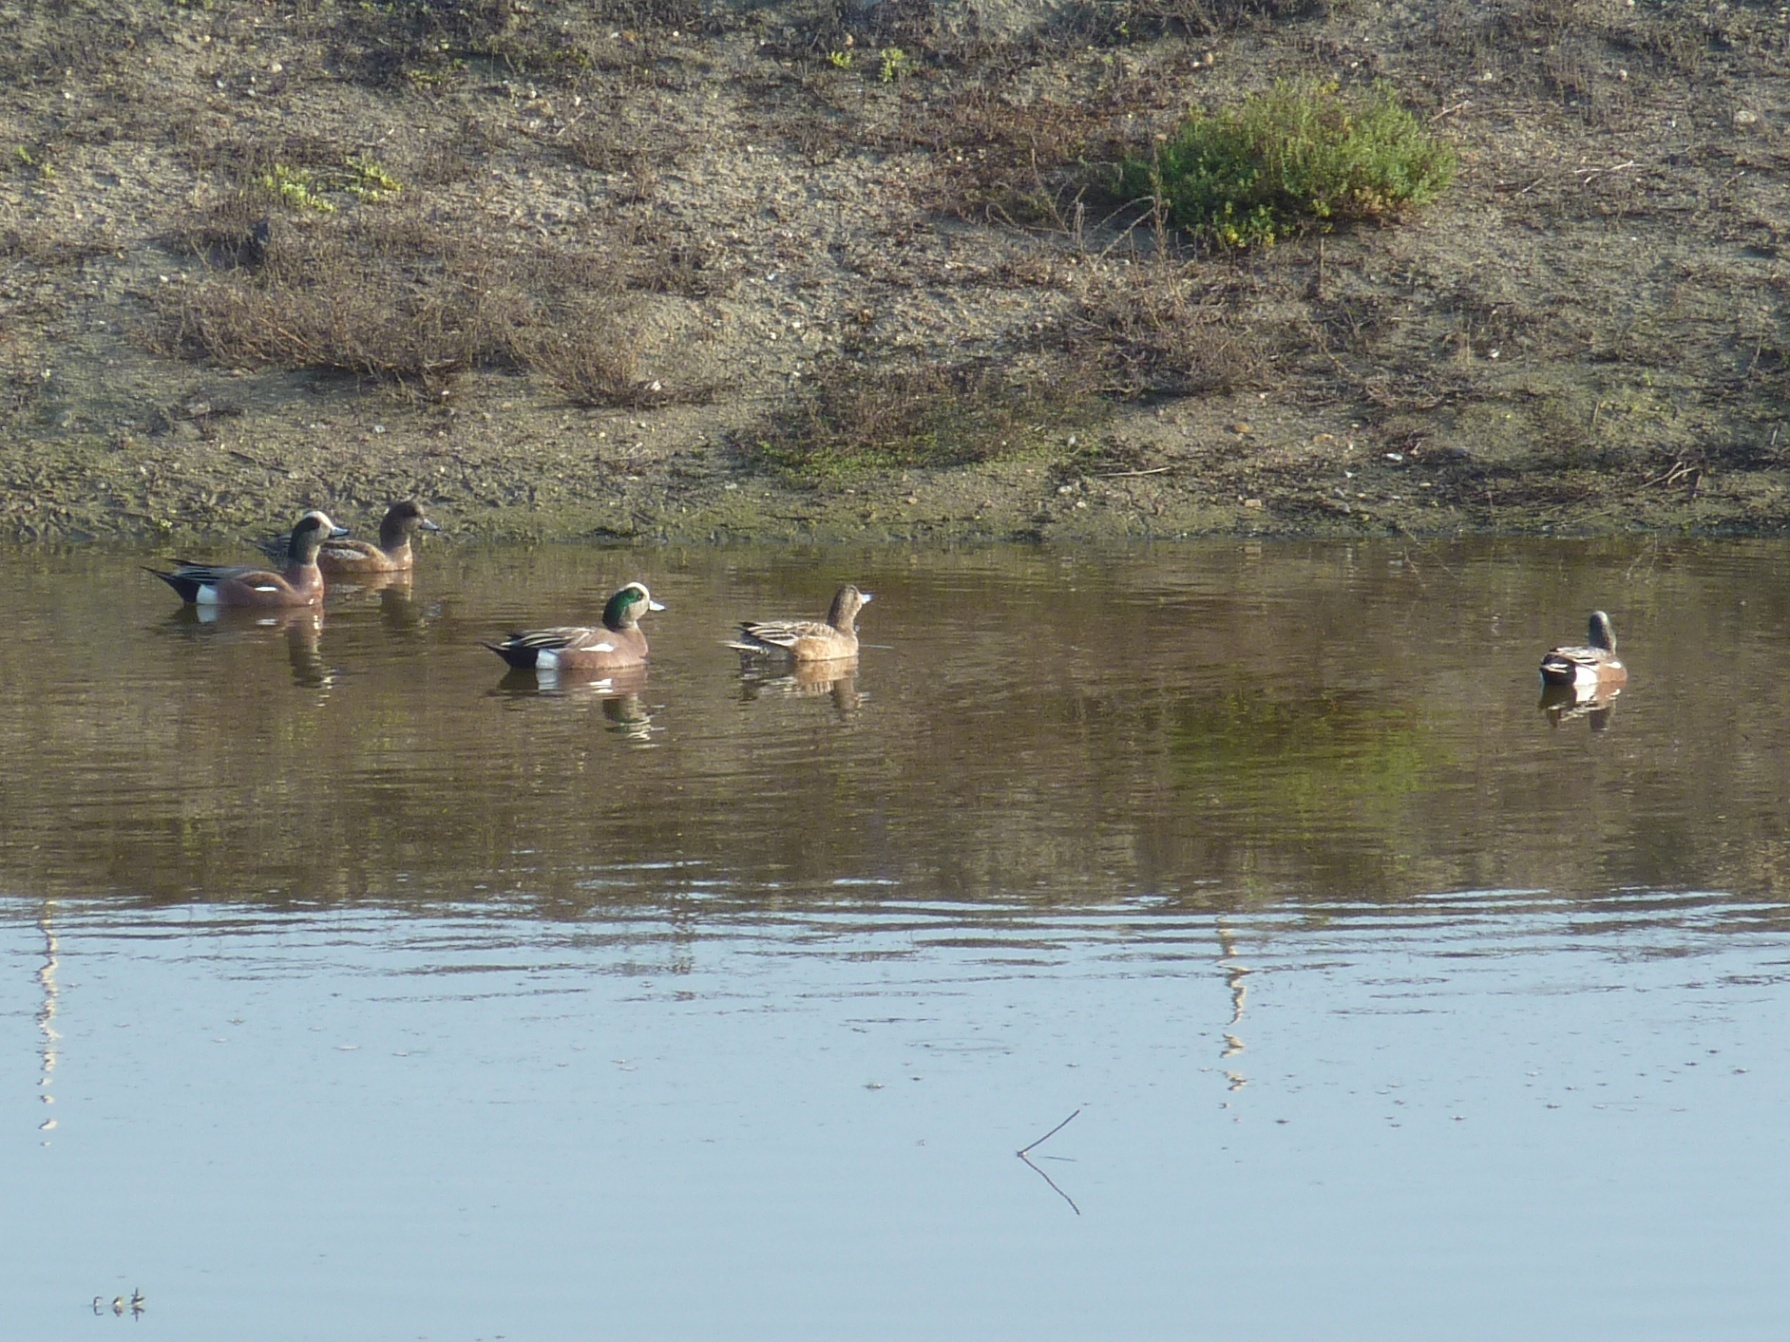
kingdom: Animalia
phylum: Chordata
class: Aves
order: Anseriformes
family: Anatidae
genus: Mareca
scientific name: Mareca americana
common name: American wigeon
